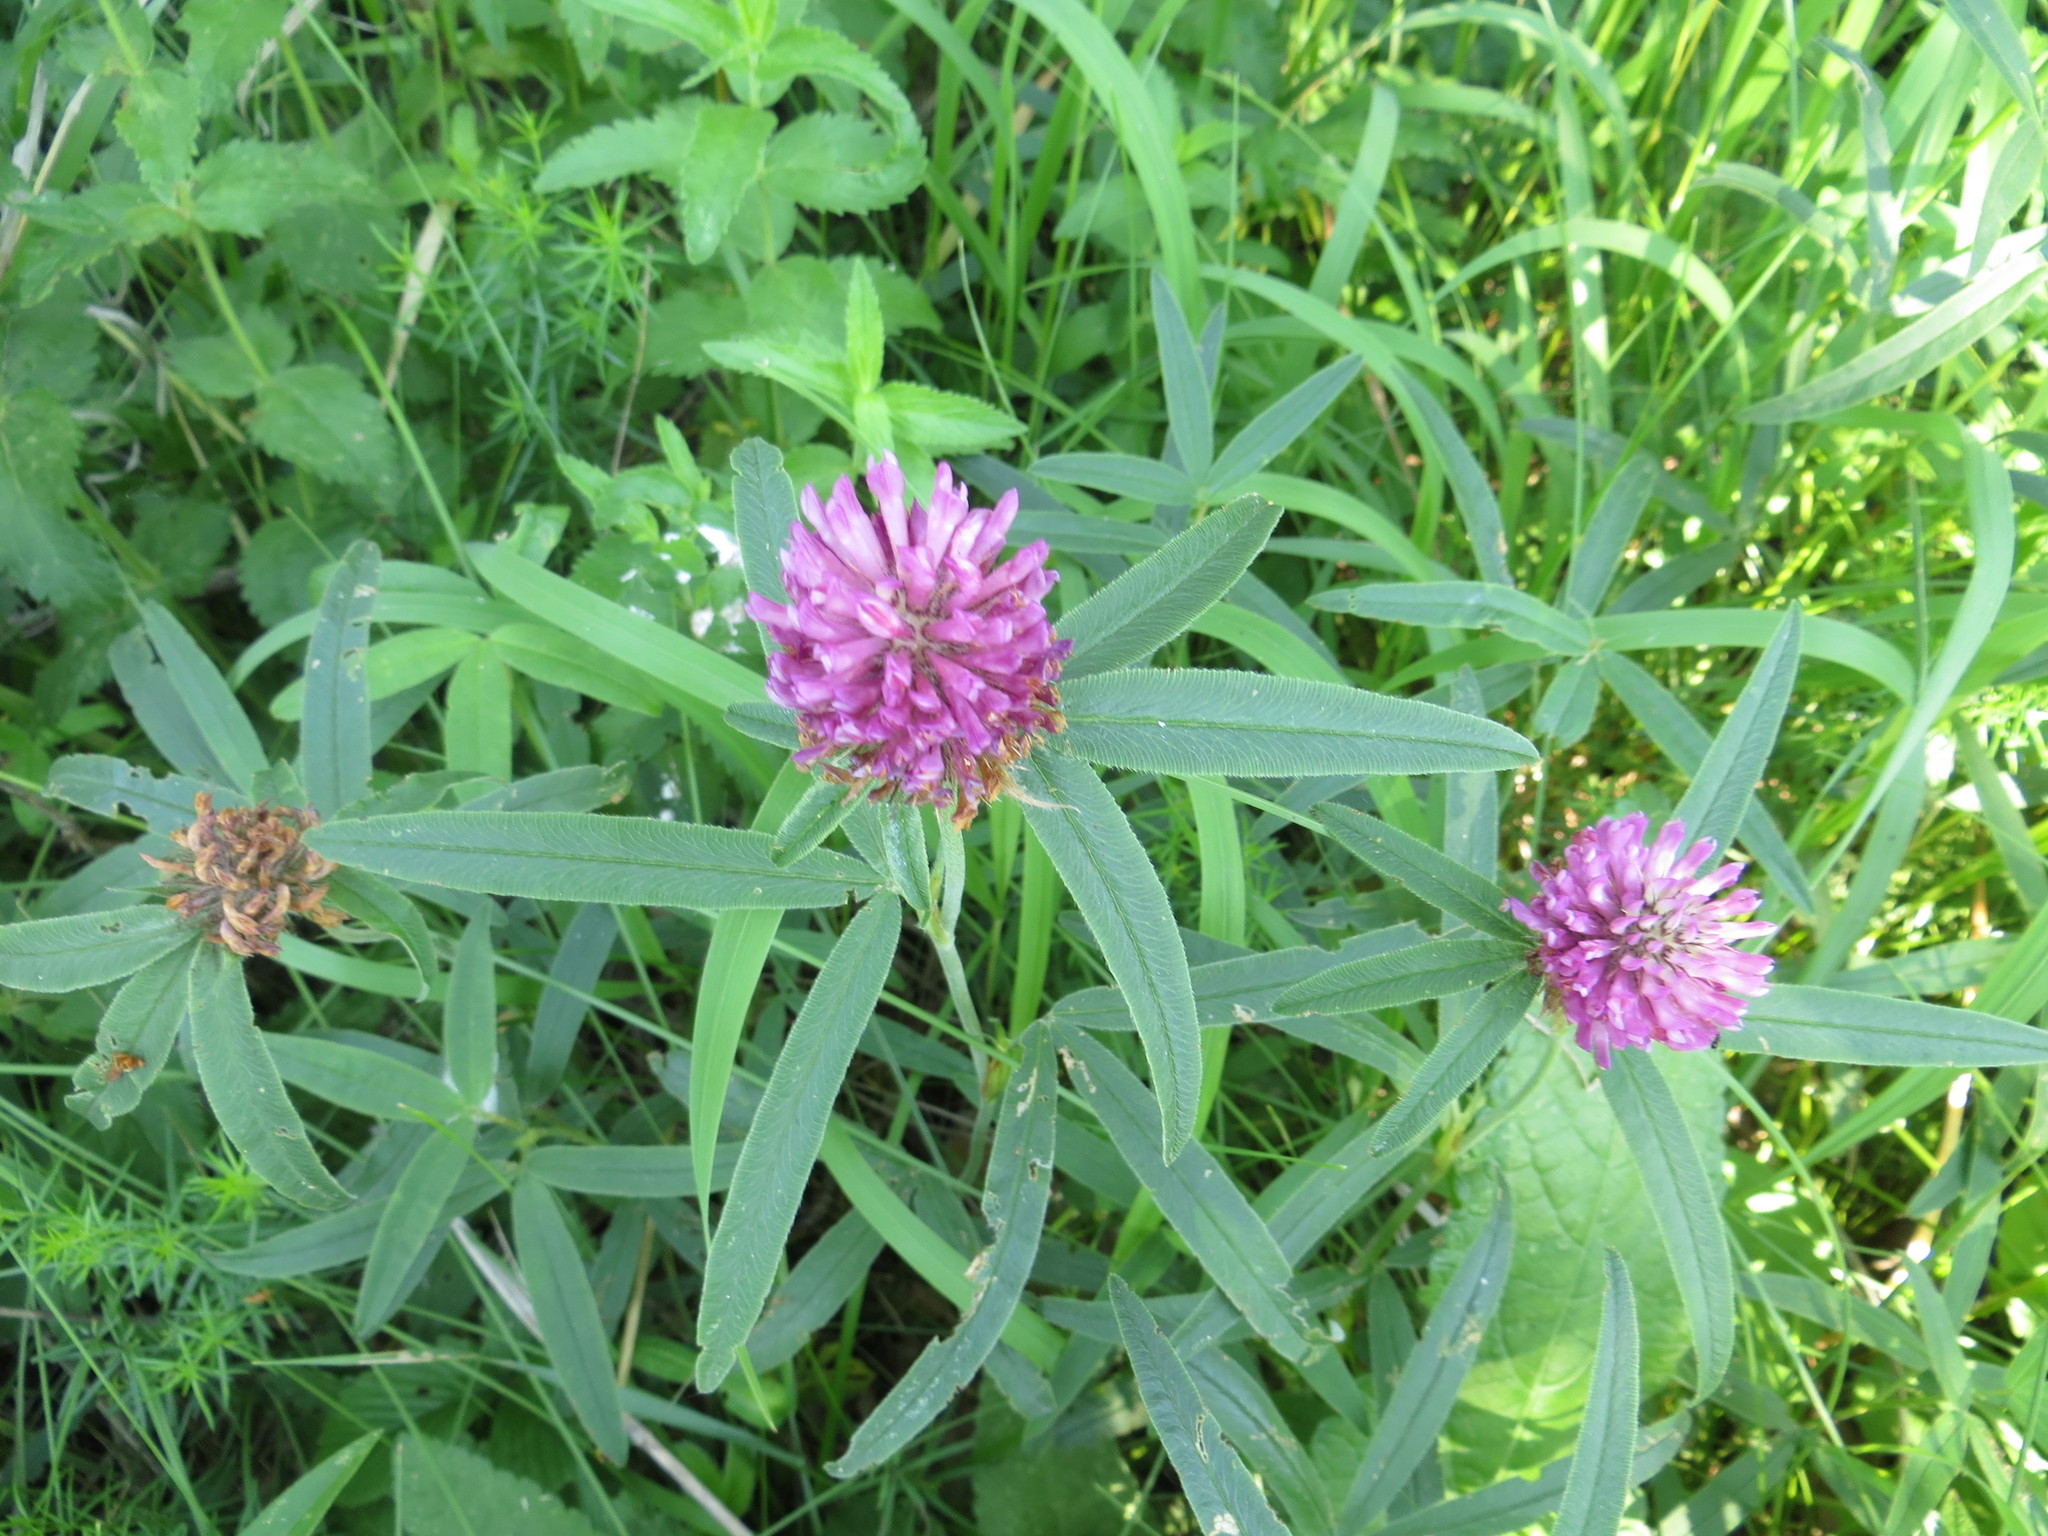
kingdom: Plantae
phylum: Tracheophyta
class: Magnoliopsida
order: Fabales
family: Fabaceae
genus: Trifolium
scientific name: Trifolium alpestre
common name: Owl-head clover
